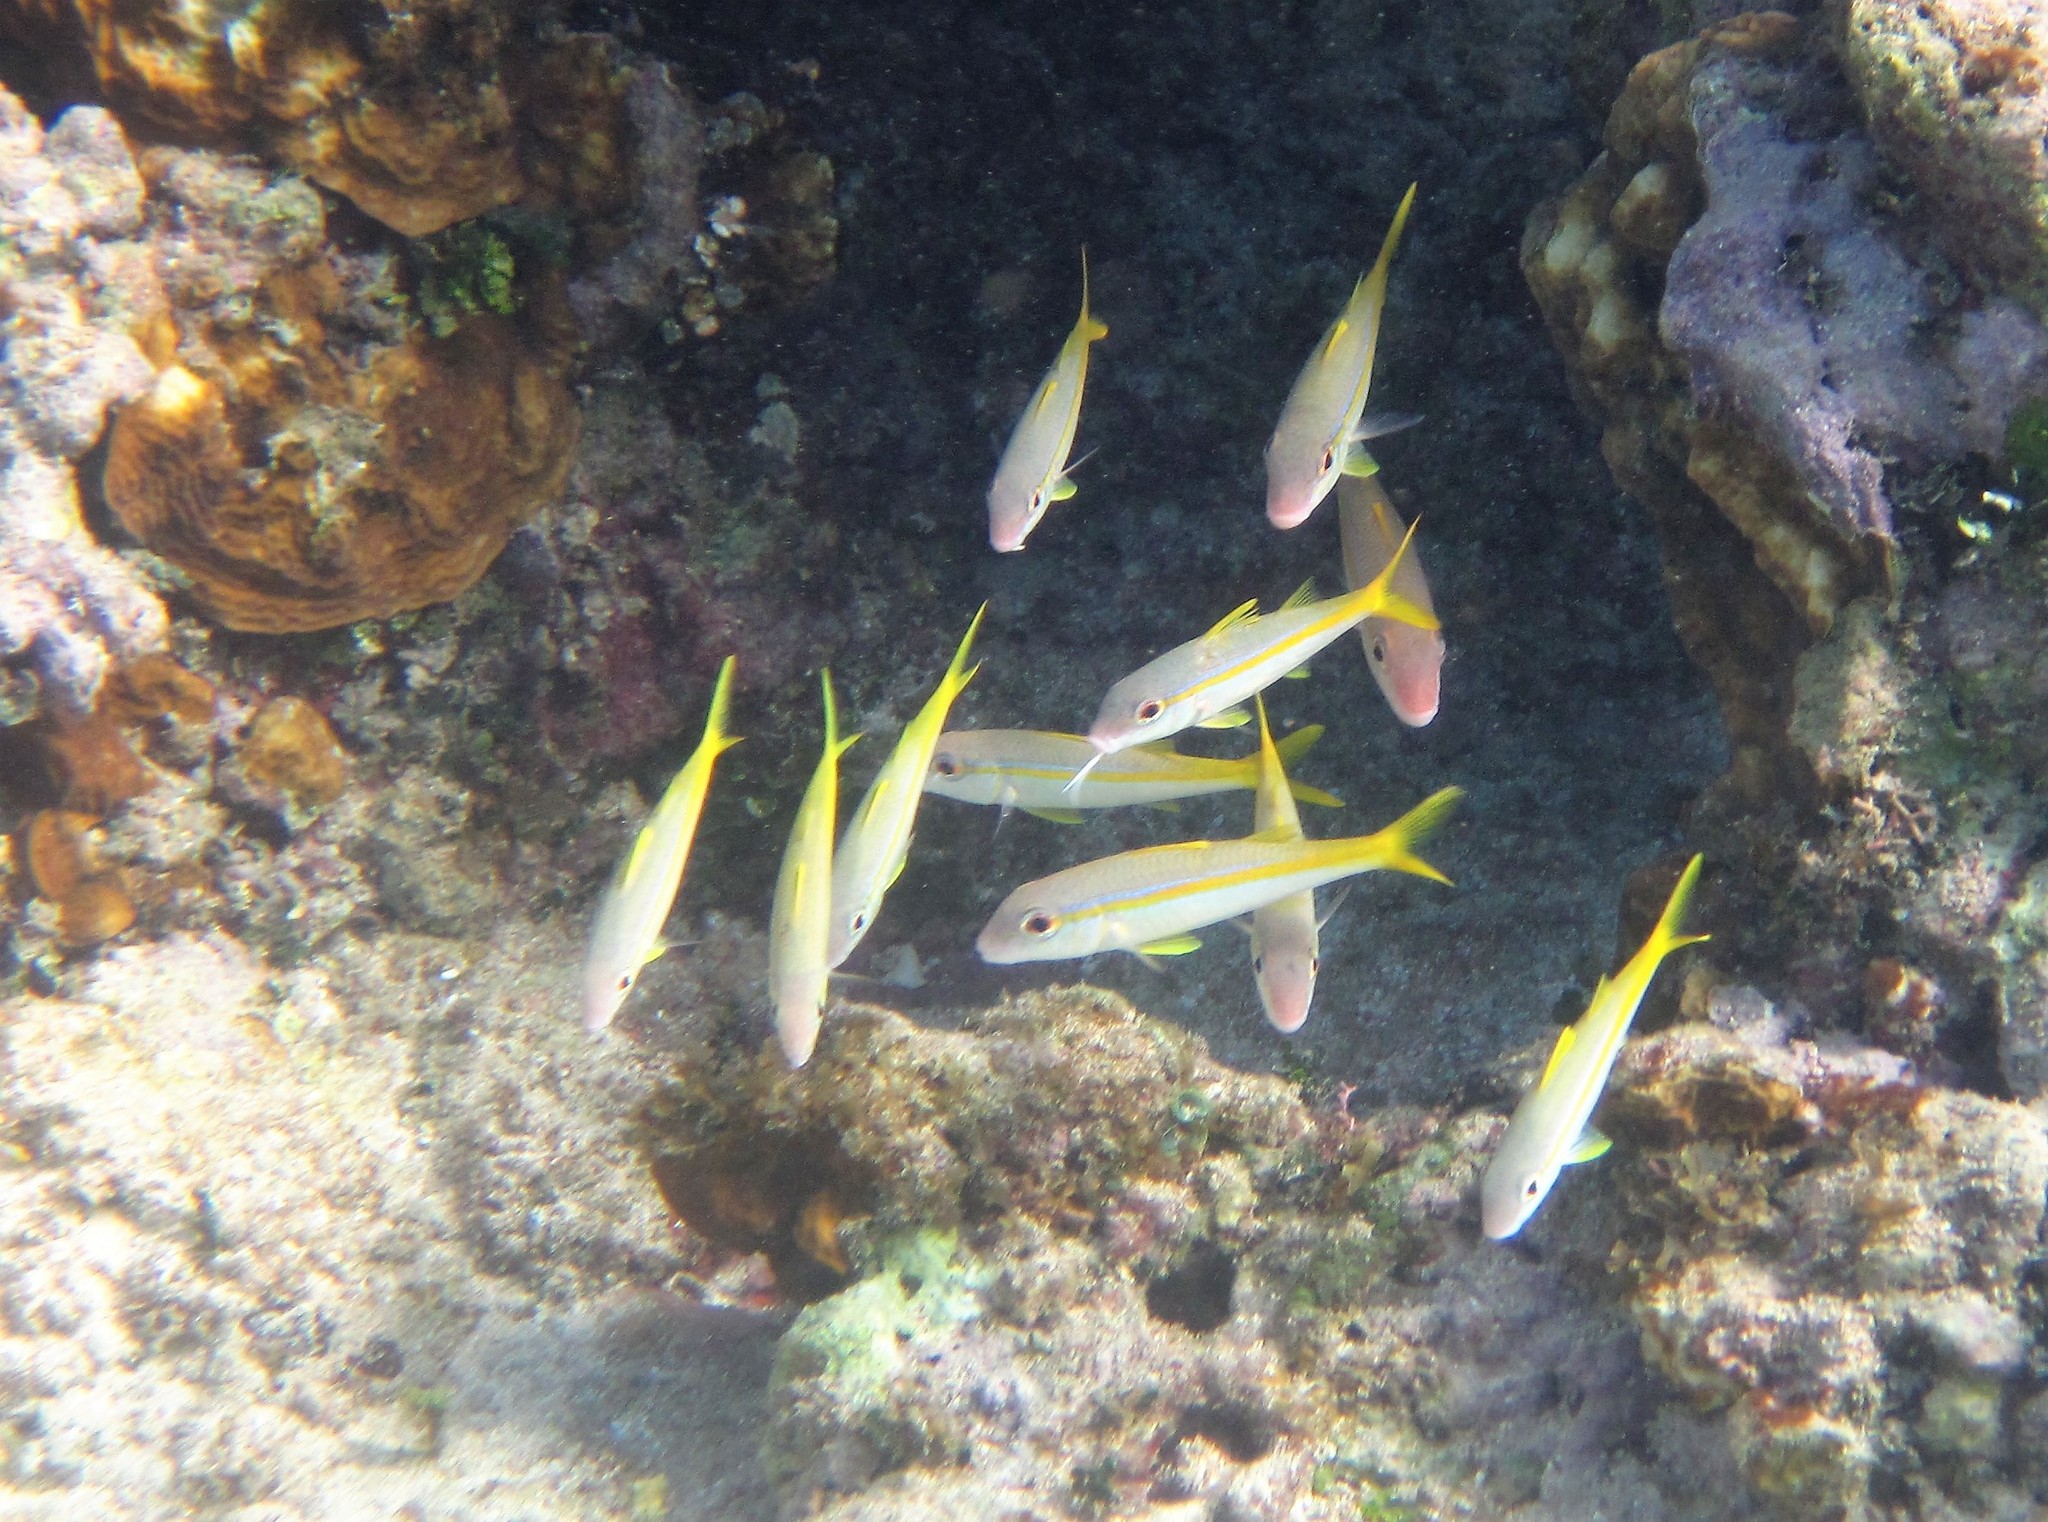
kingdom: Animalia
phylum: Chordata
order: Perciformes
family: Mullidae
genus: Mulloidichthys
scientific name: Mulloidichthys martinicus
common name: Yellow goatfish
